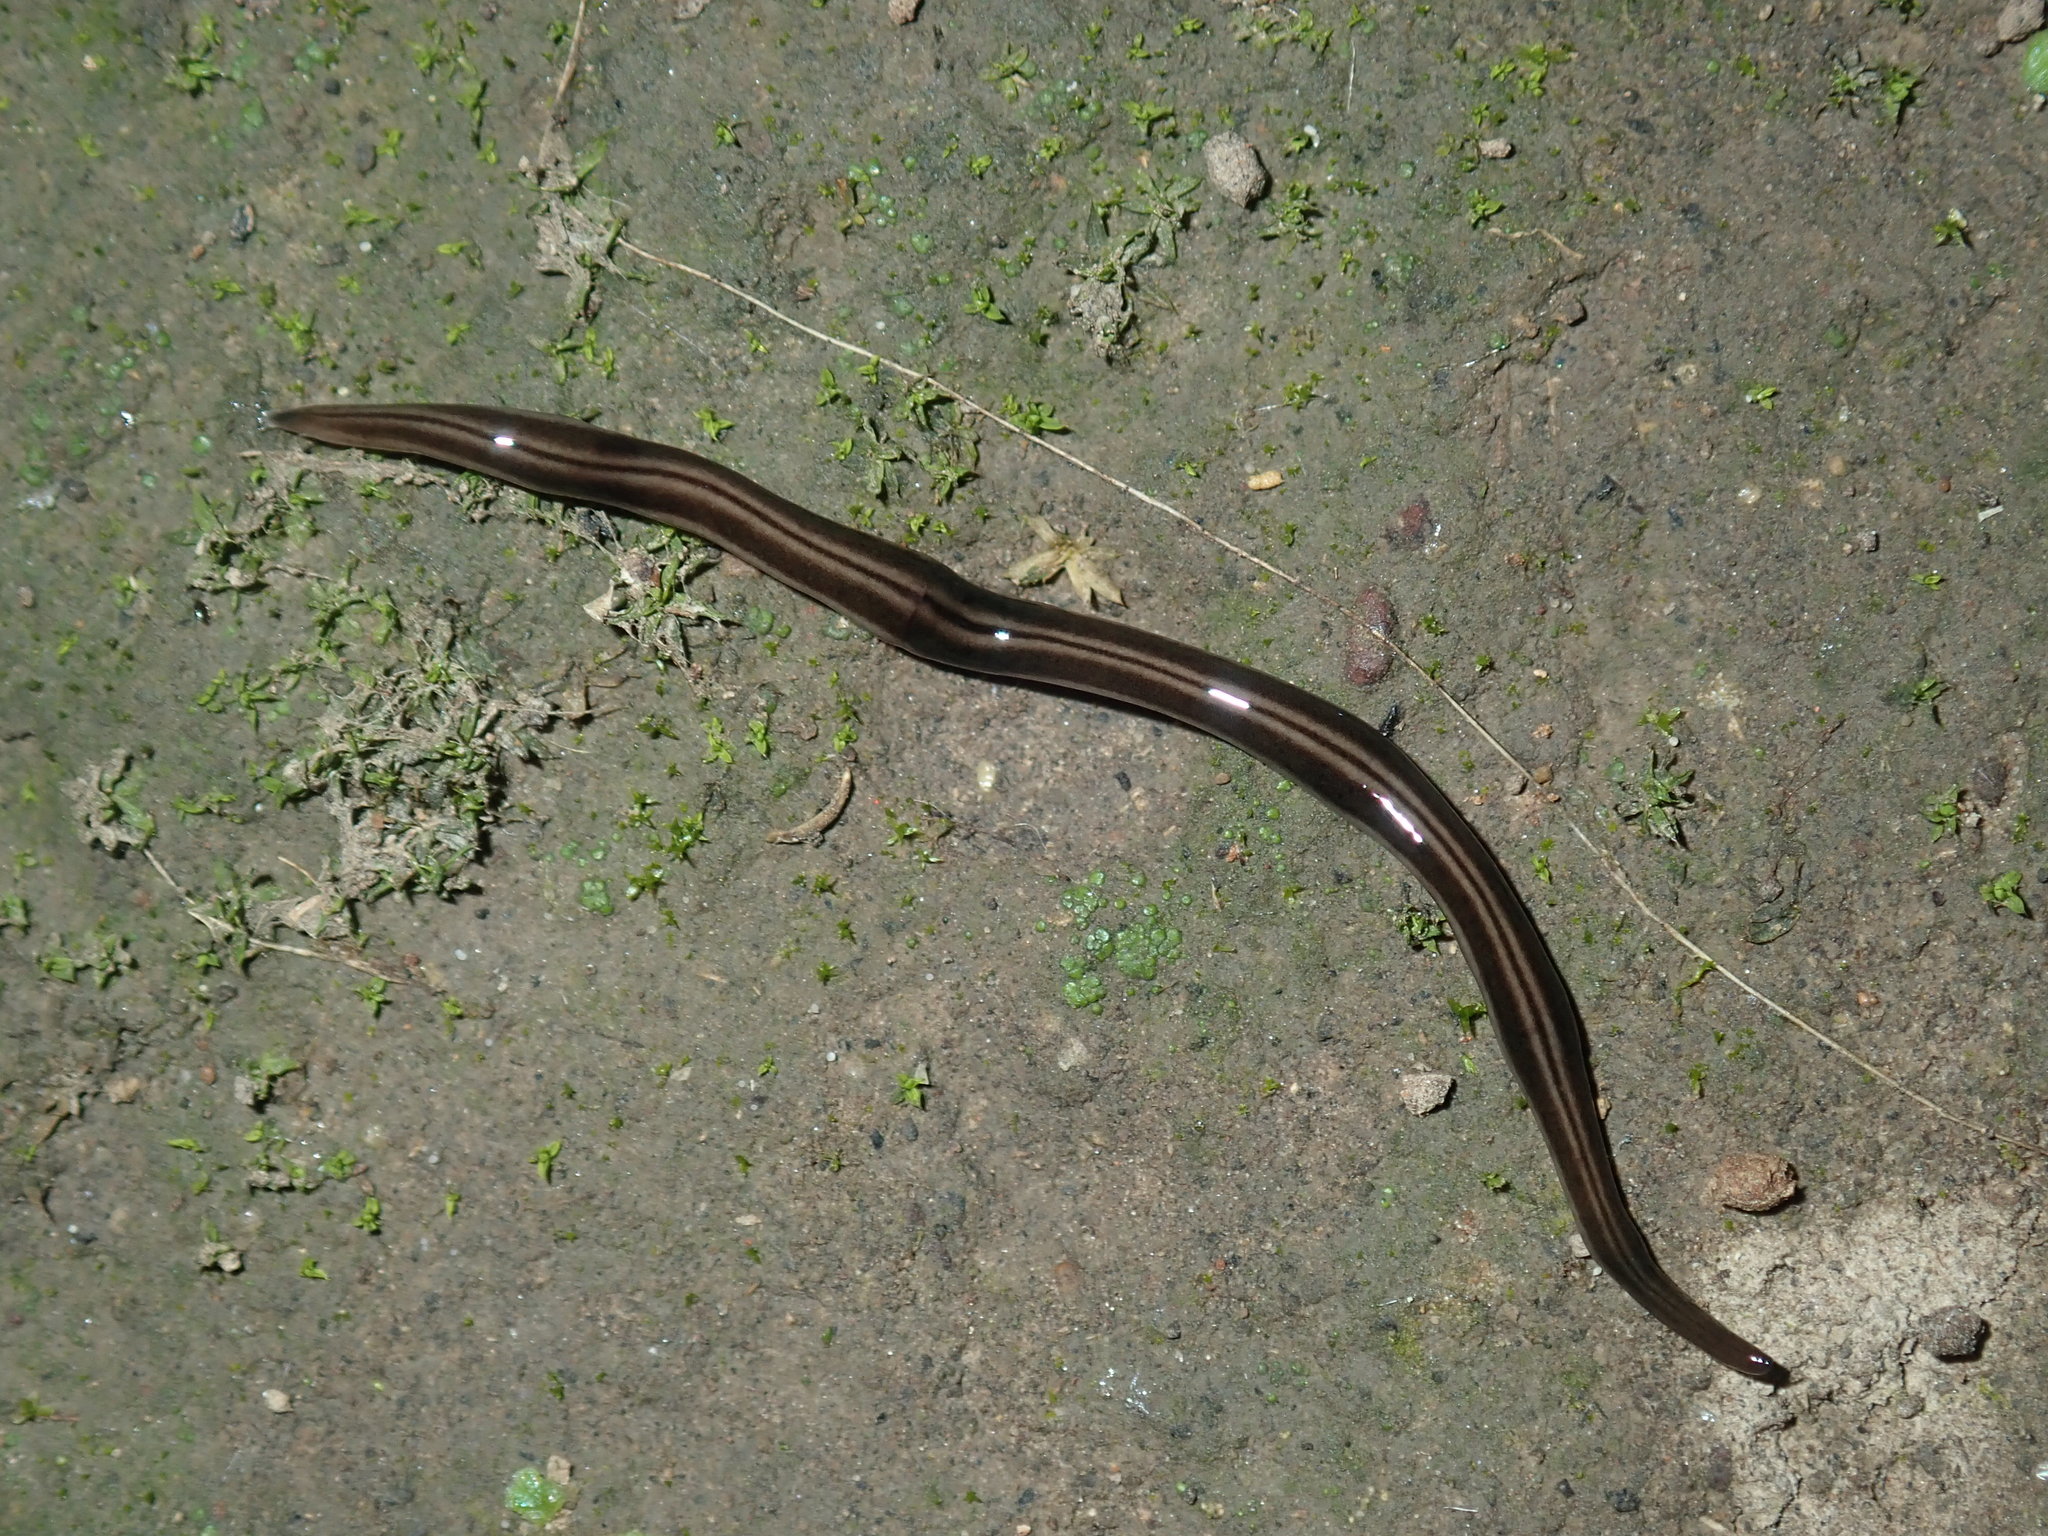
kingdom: Animalia
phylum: Platyhelminthes
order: Tricladida
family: Geoplanidae
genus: Parakontikia
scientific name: Parakontikia ventrolineata
